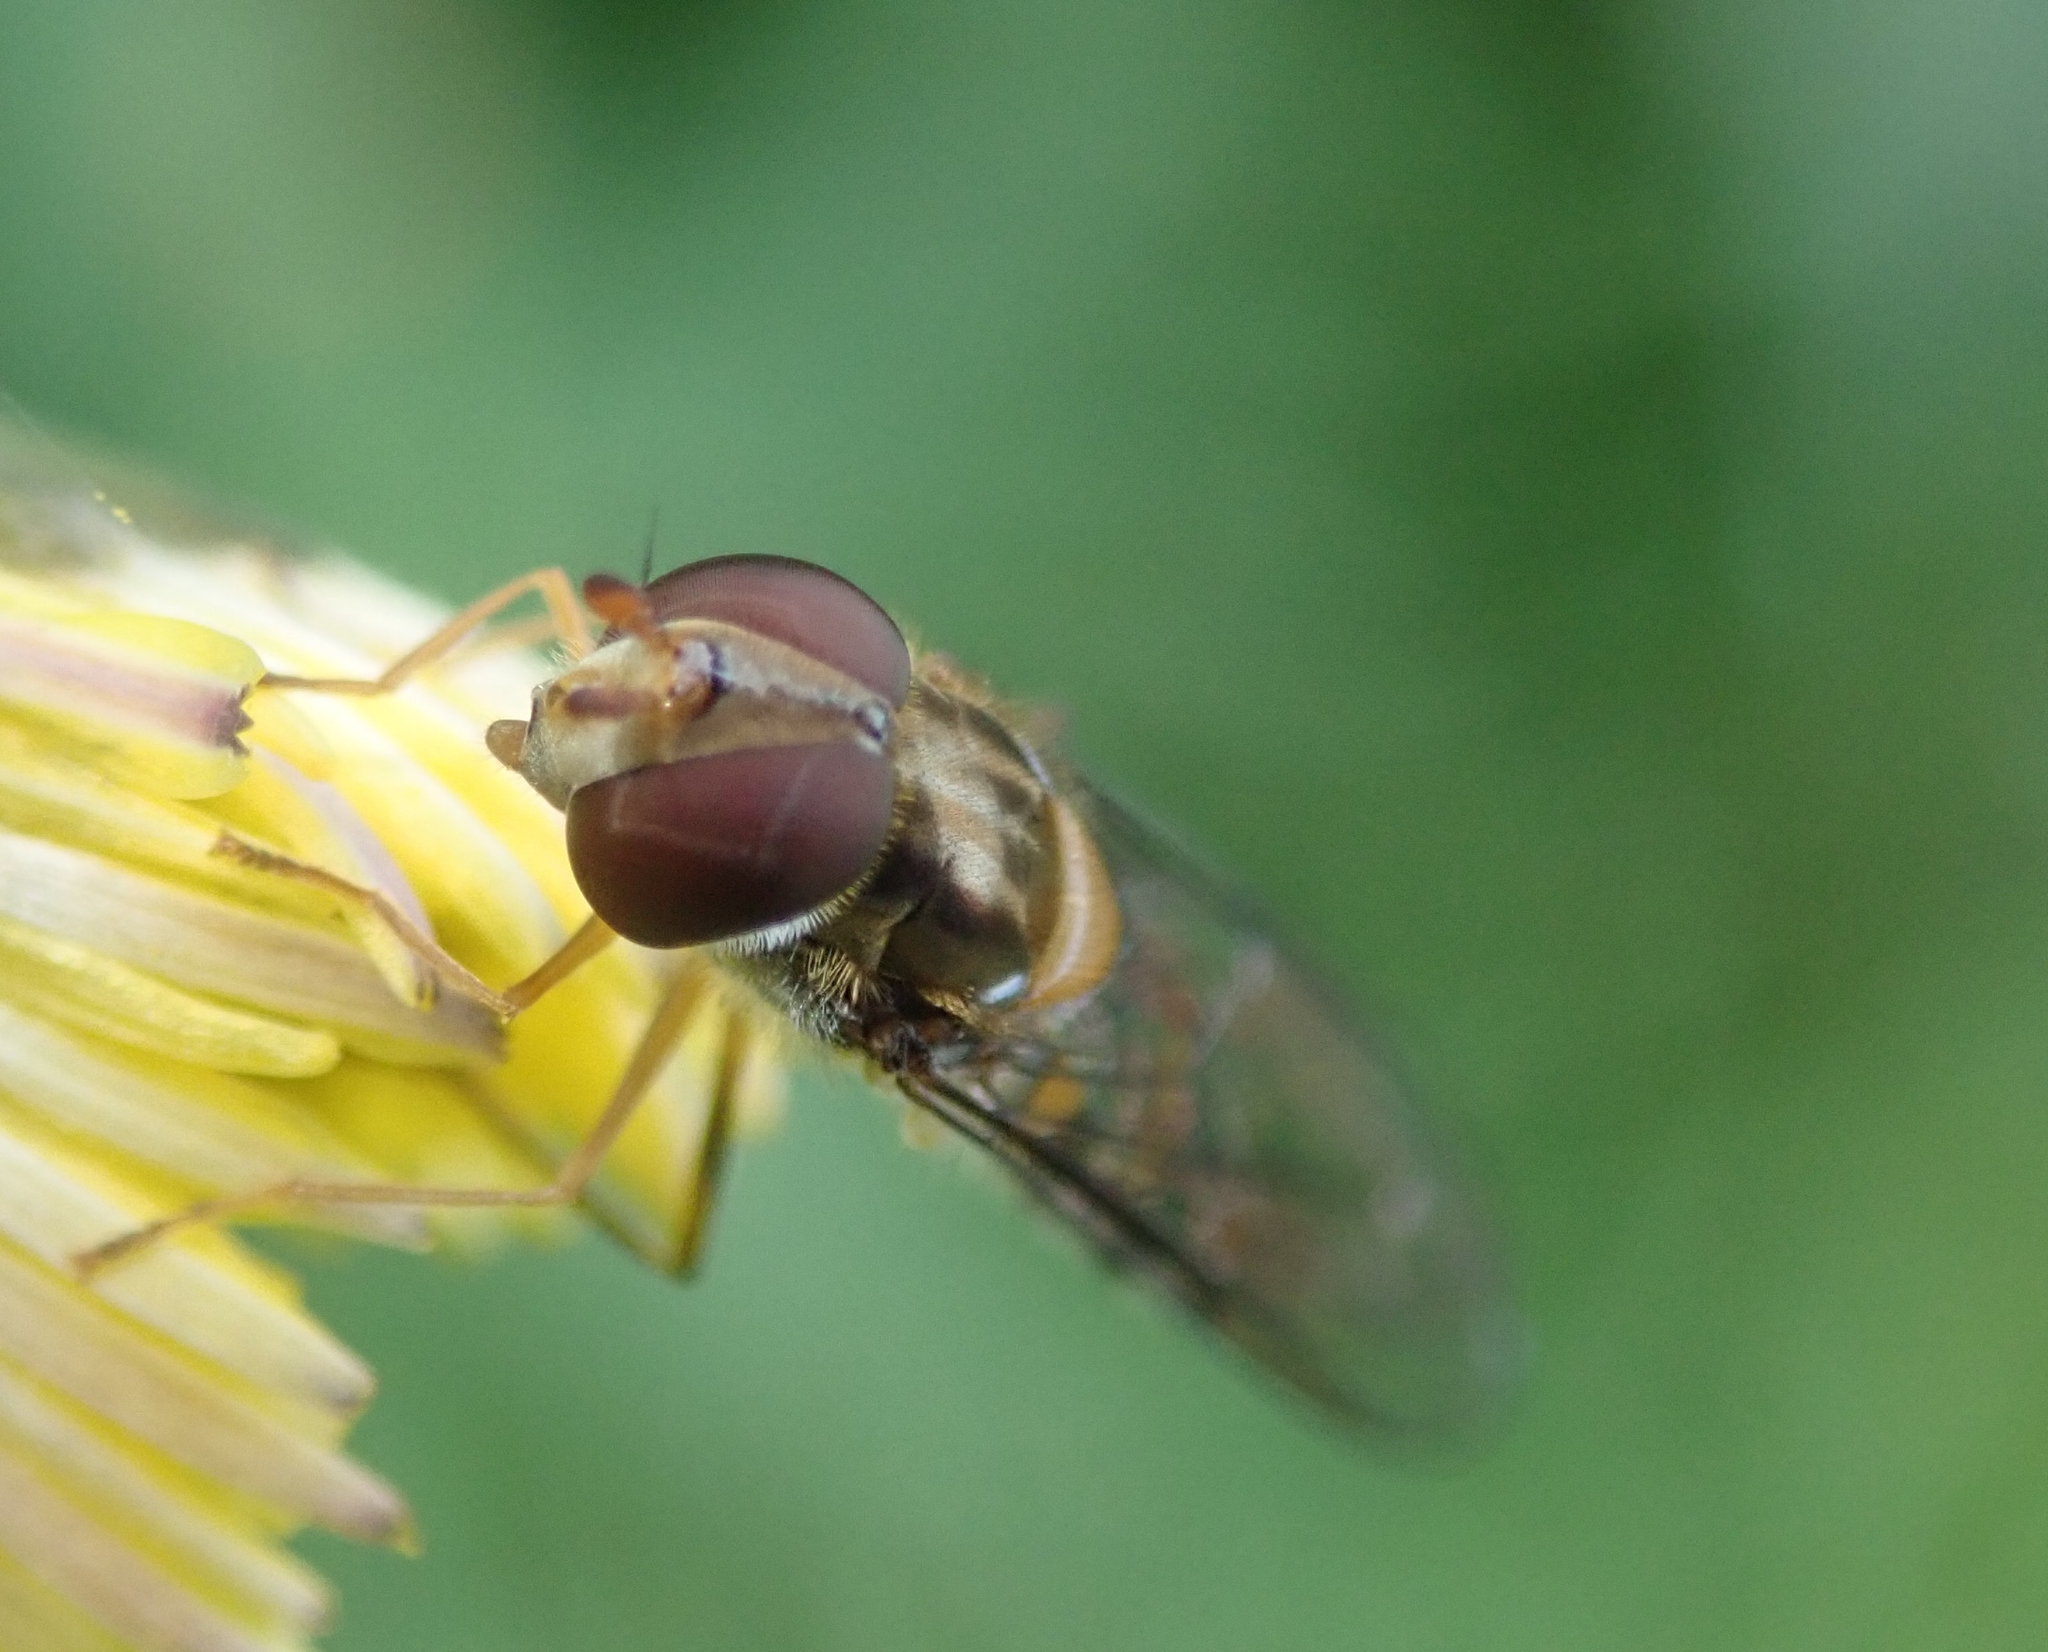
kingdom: Animalia
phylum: Arthropoda
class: Insecta
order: Diptera
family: Syrphidae
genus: Episyrphus
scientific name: Episyrphus balteatus
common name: Marmalade hoverfly
